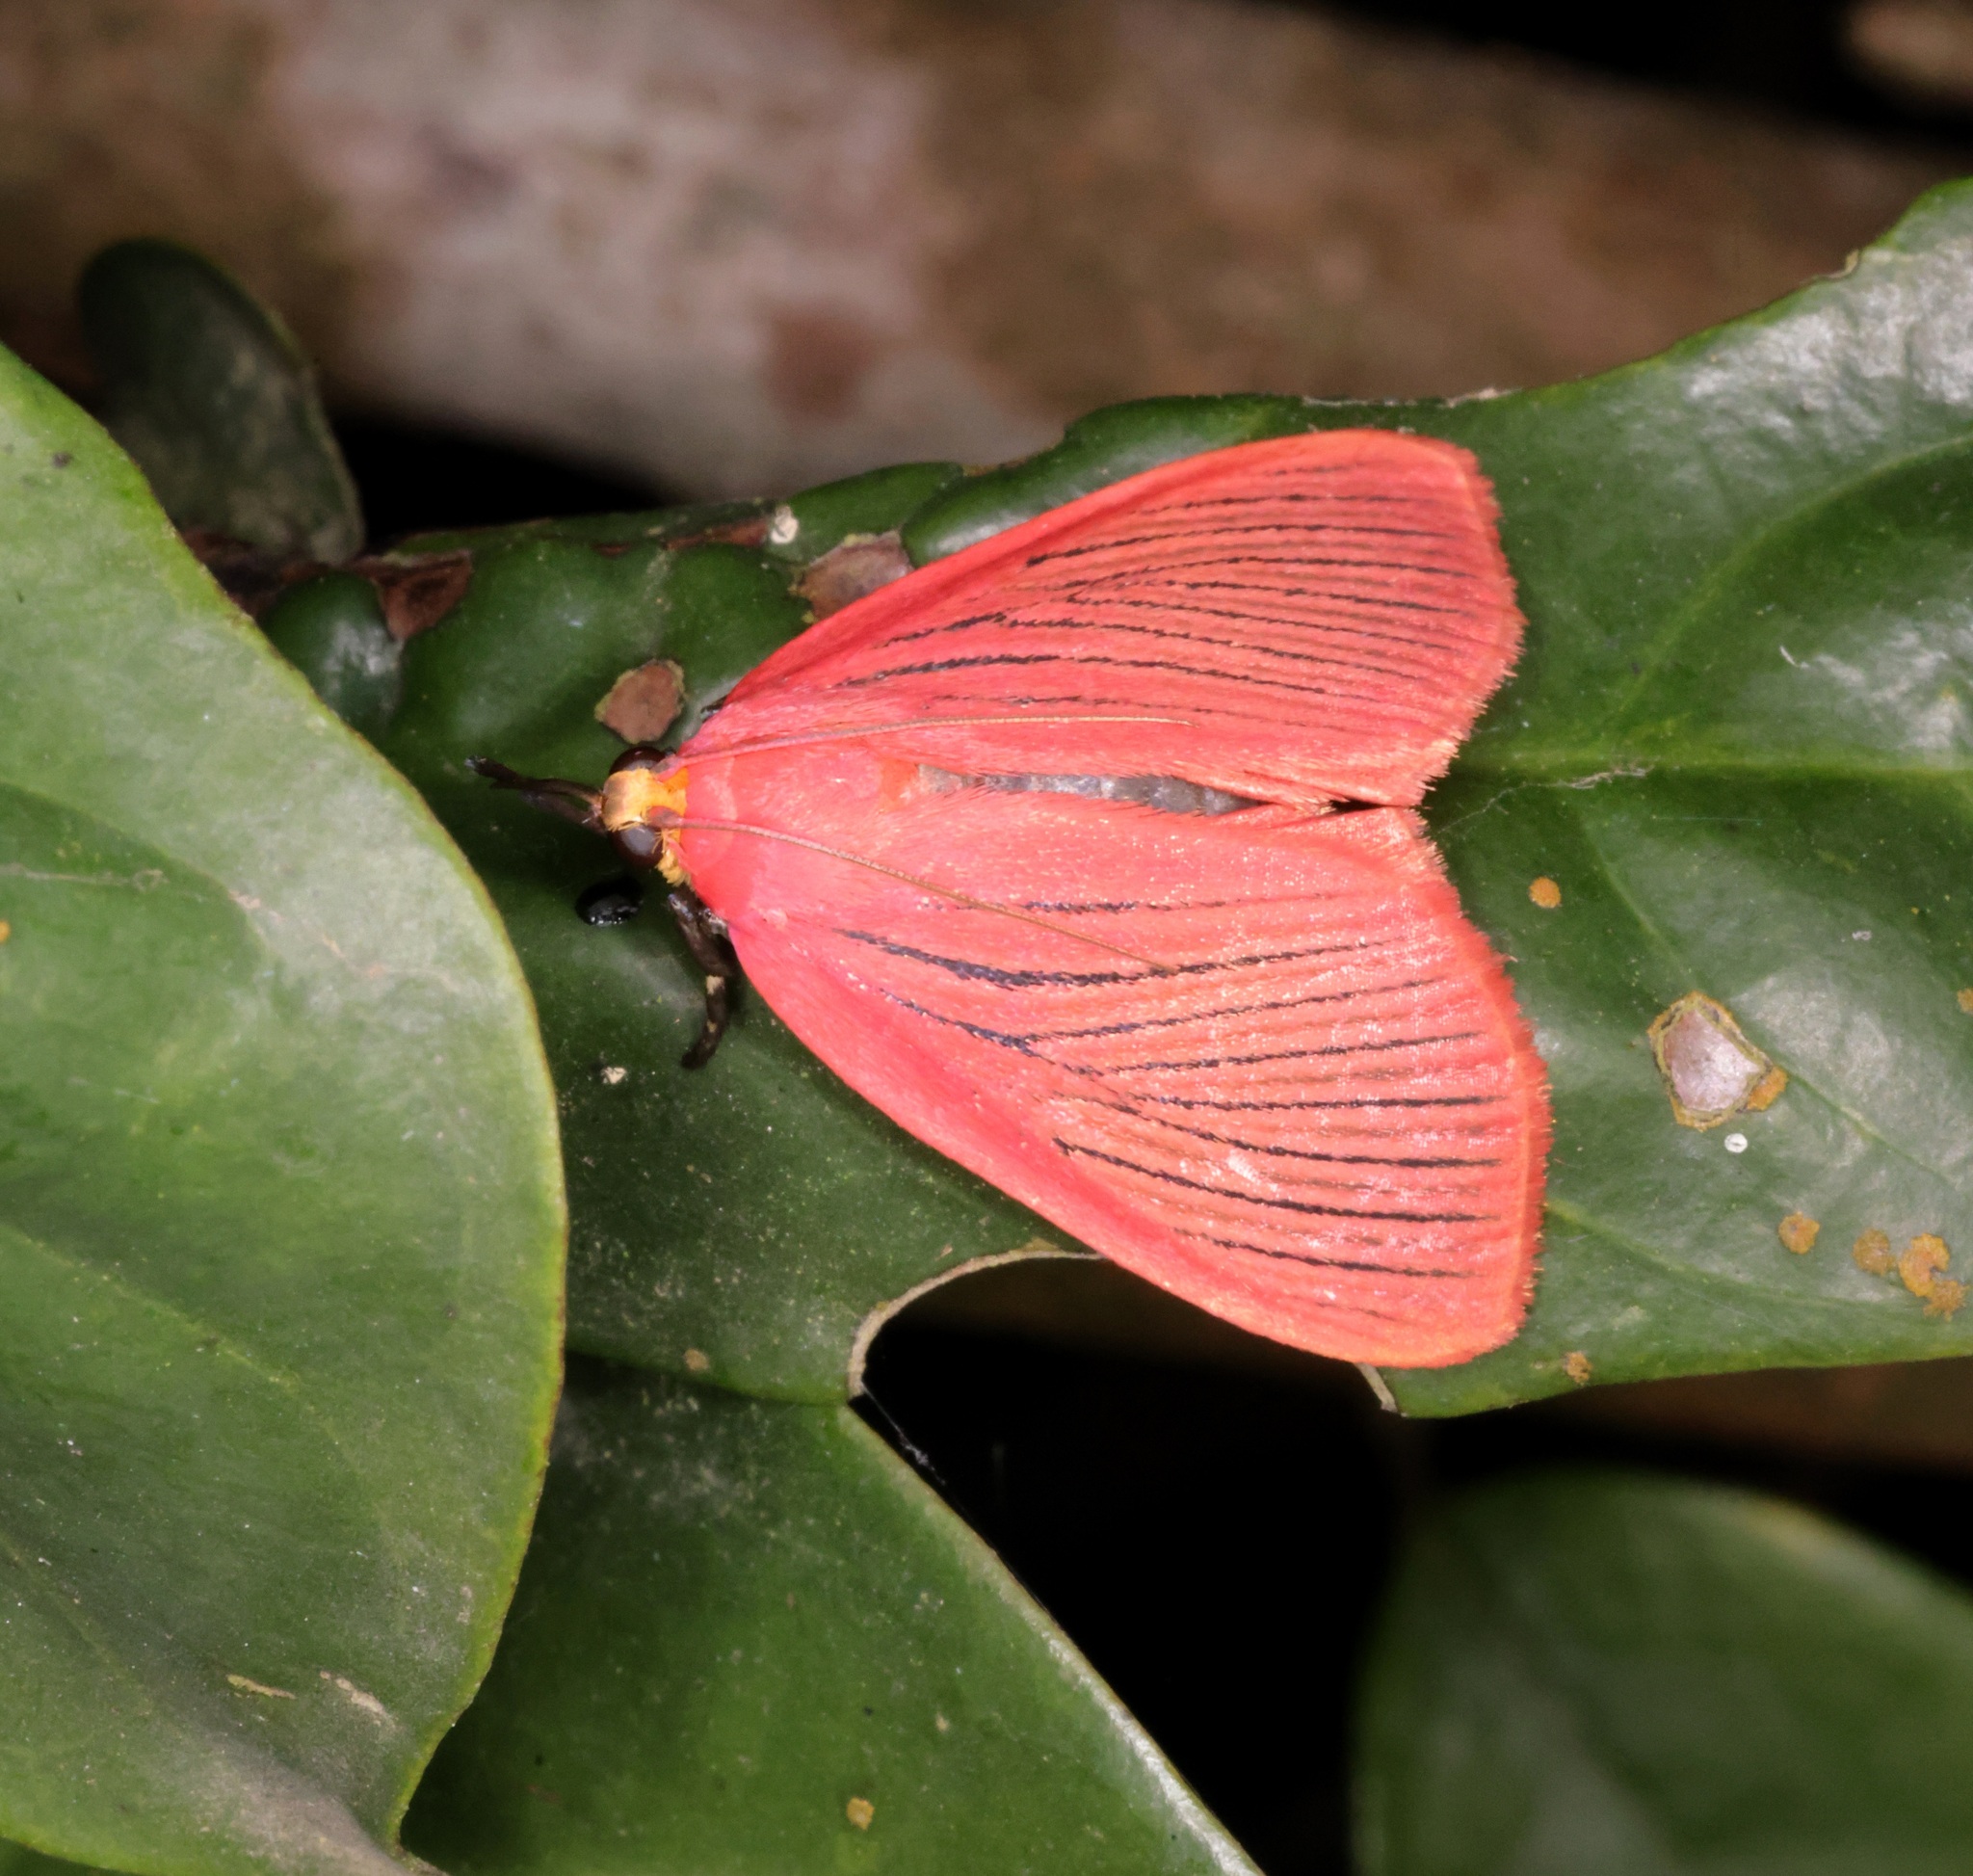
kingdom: Animalia
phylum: Arthropoda
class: Insecta
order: Lepidoptera
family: Pyralidae
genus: Arctioblepsis
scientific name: Arctioblepsis rubida
